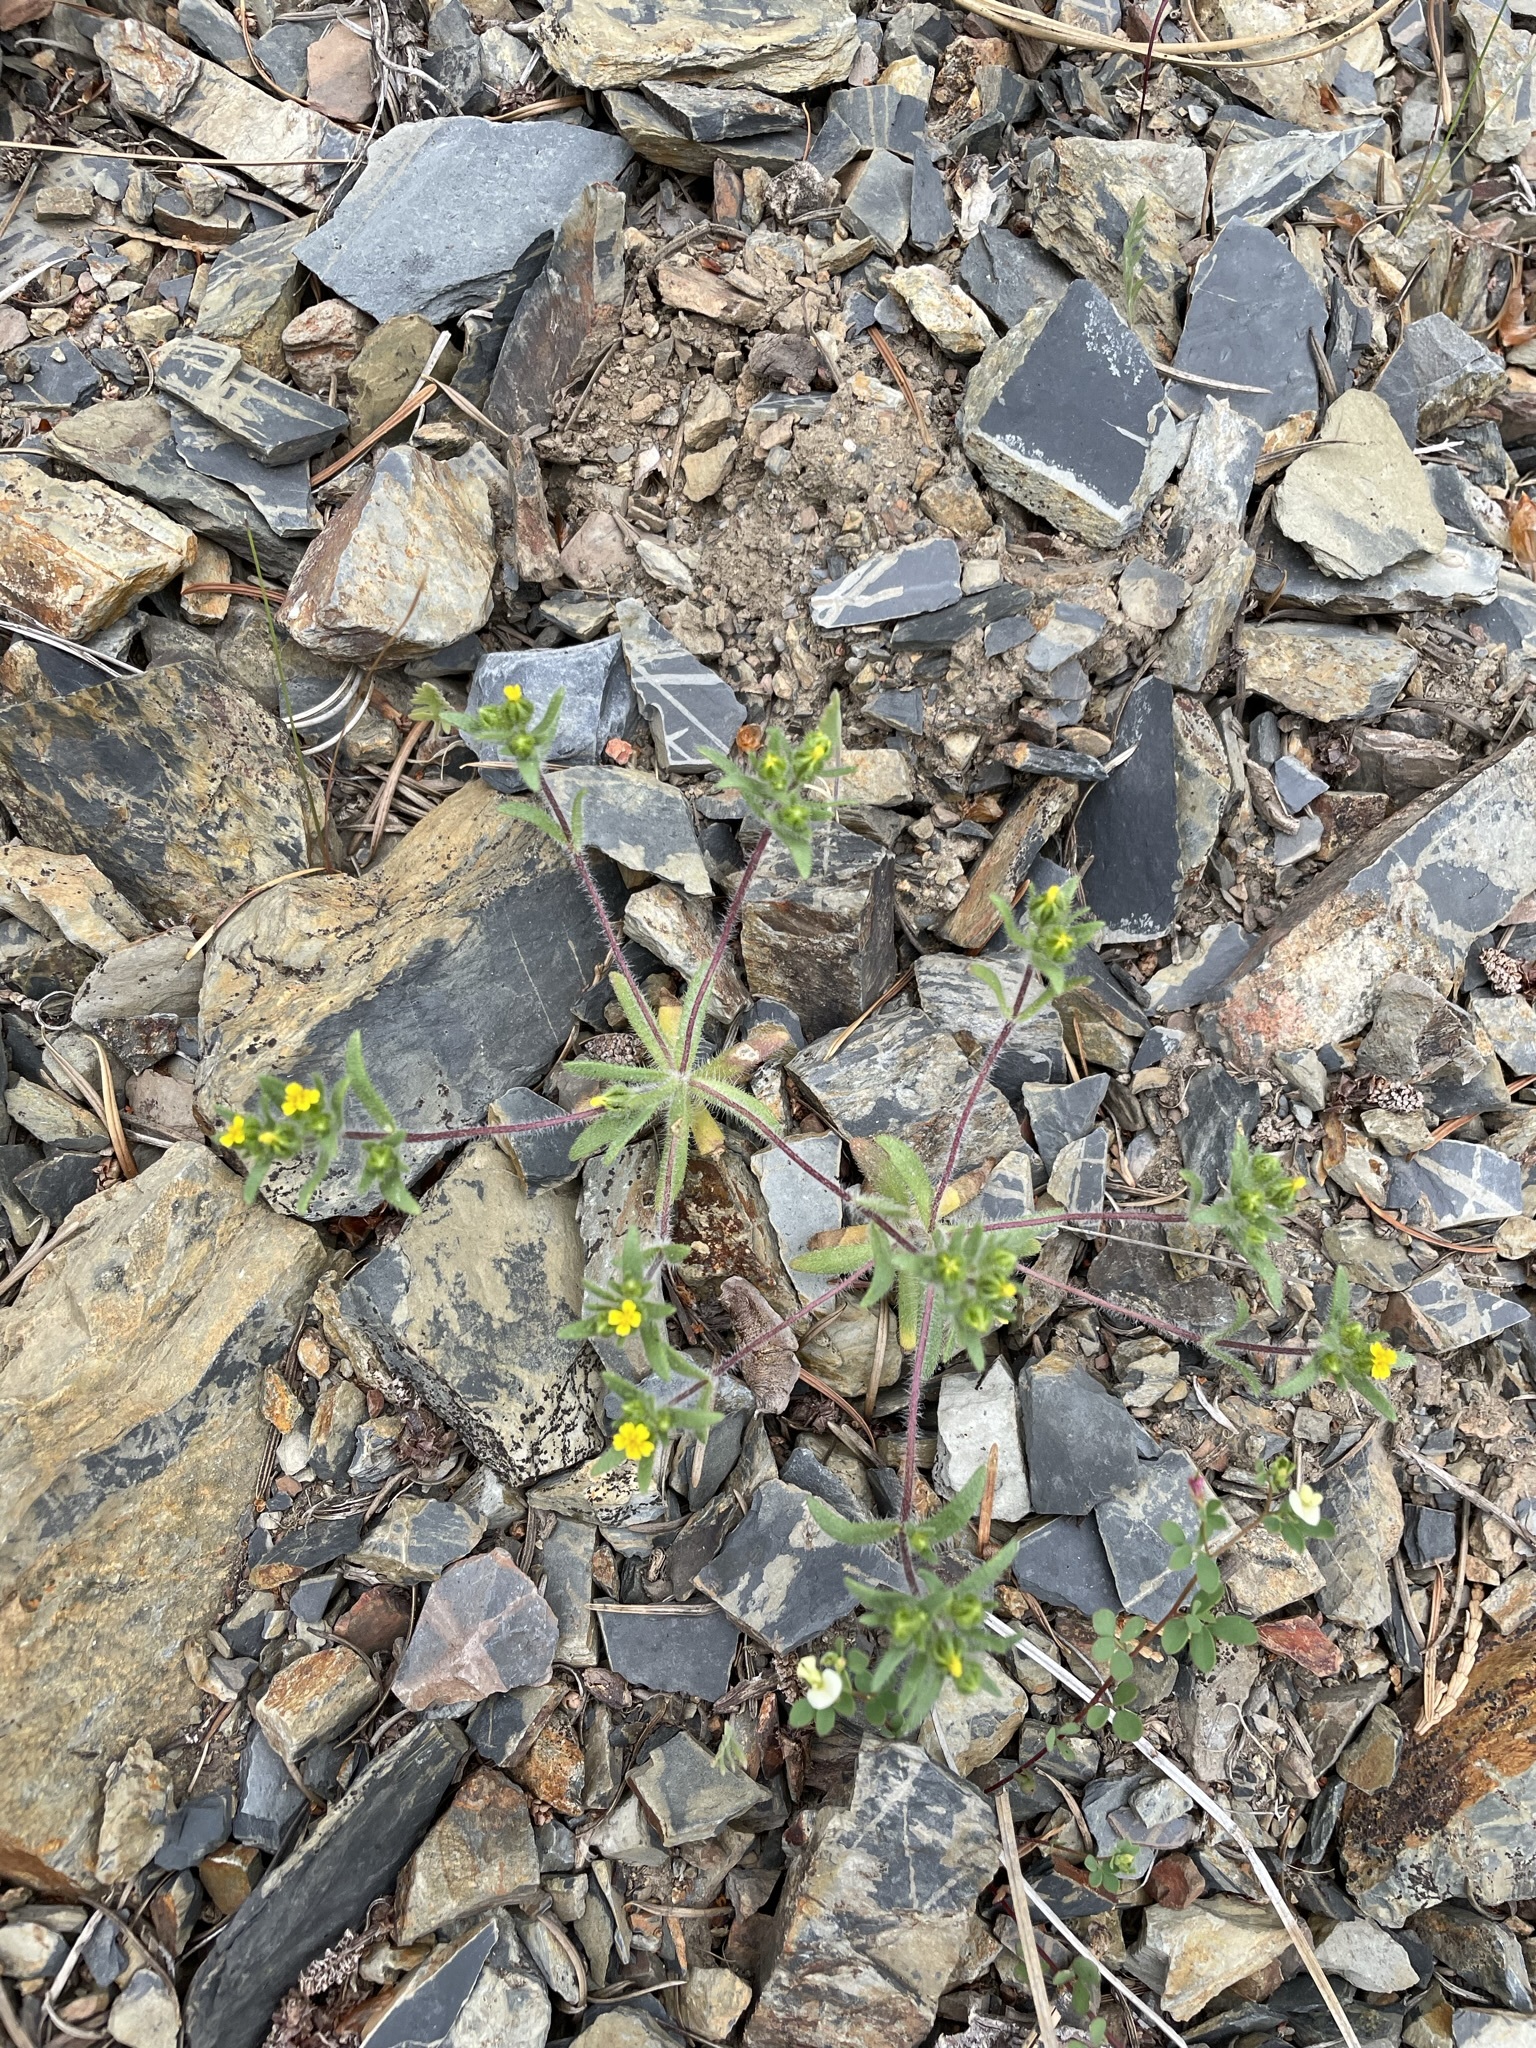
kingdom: Plantae
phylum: Tracheophyta
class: Magnoliopsida
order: Asterales
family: Asteraceae
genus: Hemizonella
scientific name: Hemizonella minima
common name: Opposite-leaved tarweed
